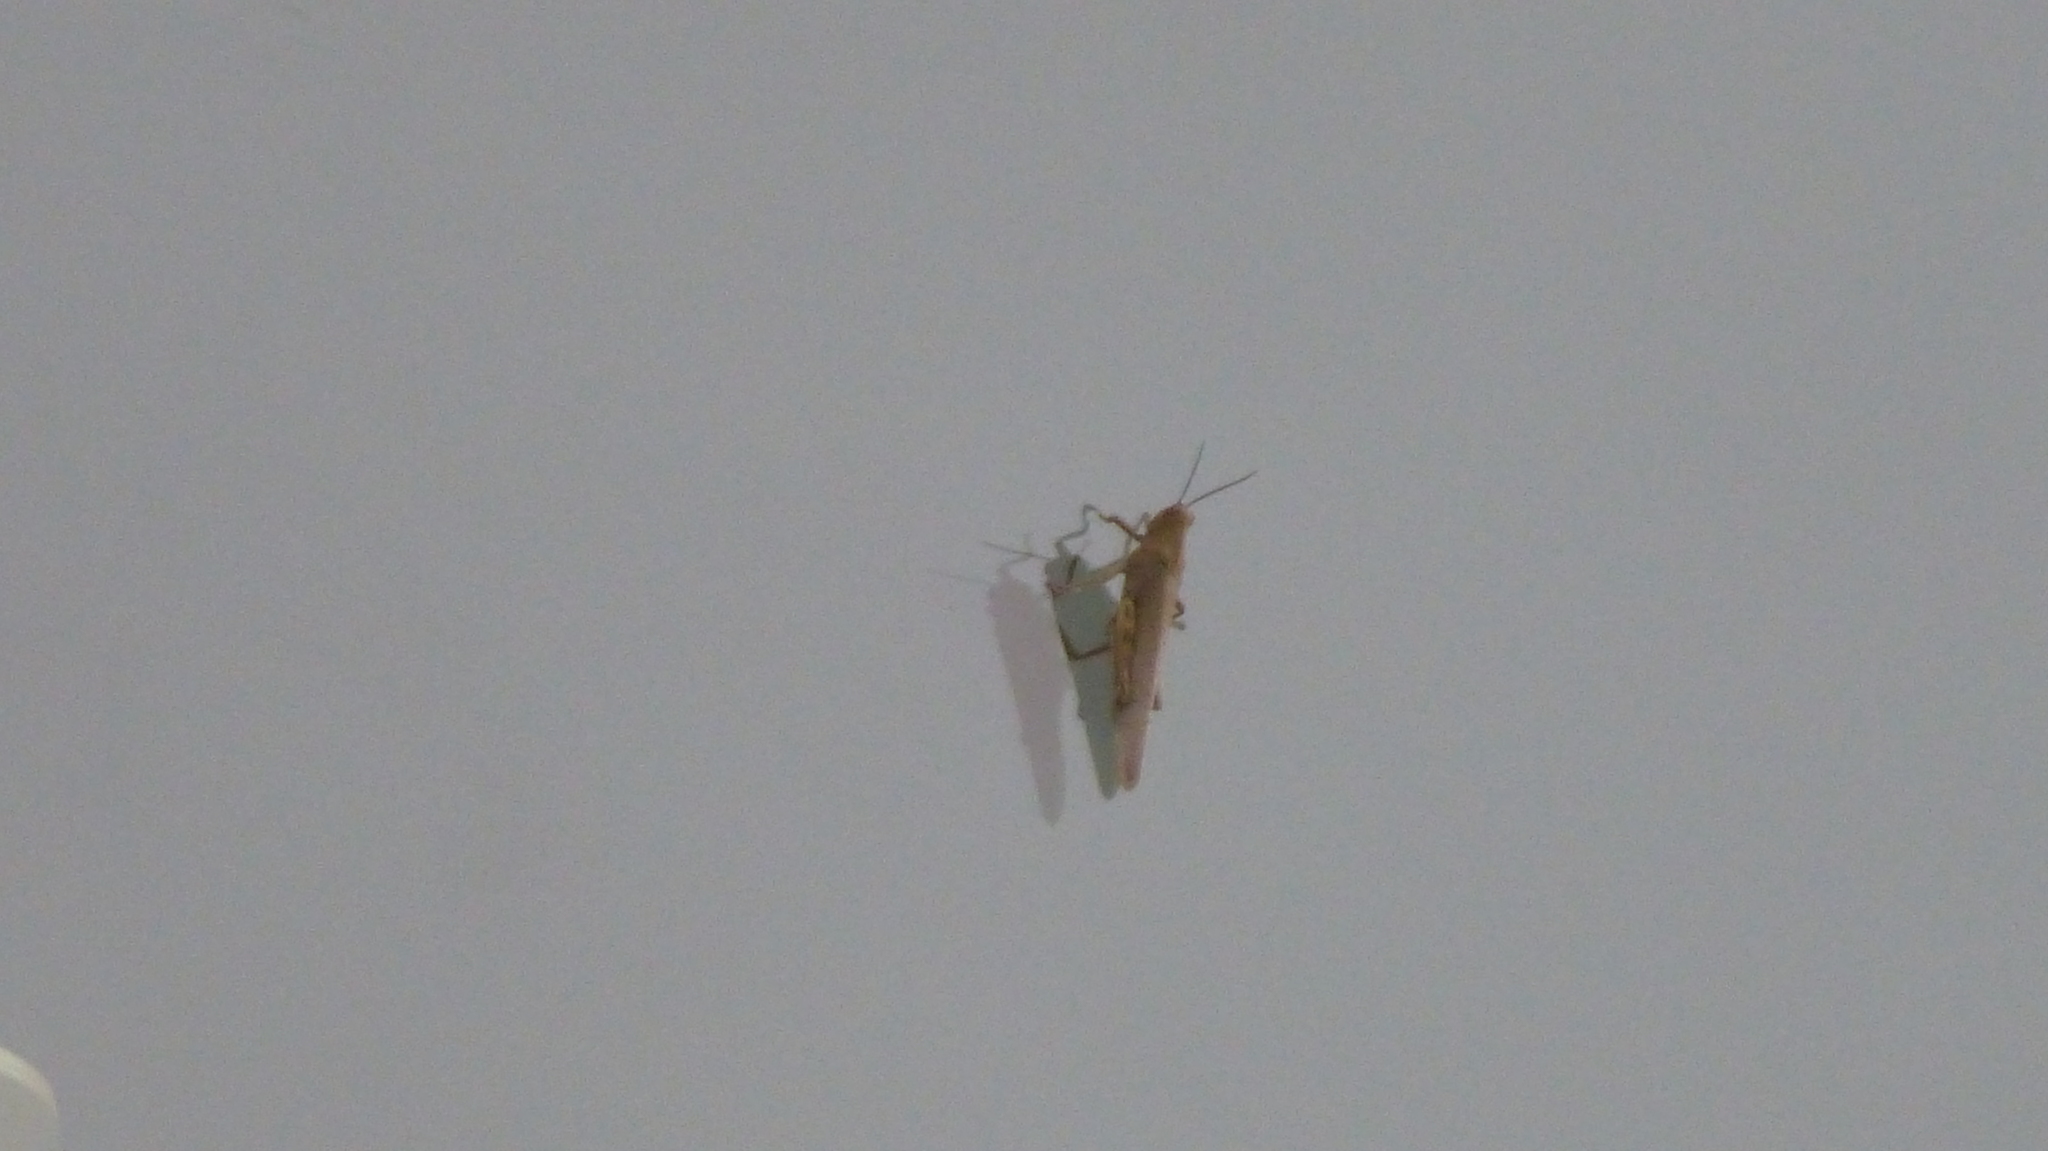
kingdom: Animalia
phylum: Arthropoda
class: Insecta
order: Orthoptera
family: Acrididae
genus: Anacridium
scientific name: Anacridium aegyptium
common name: Egyptian grasshopper
